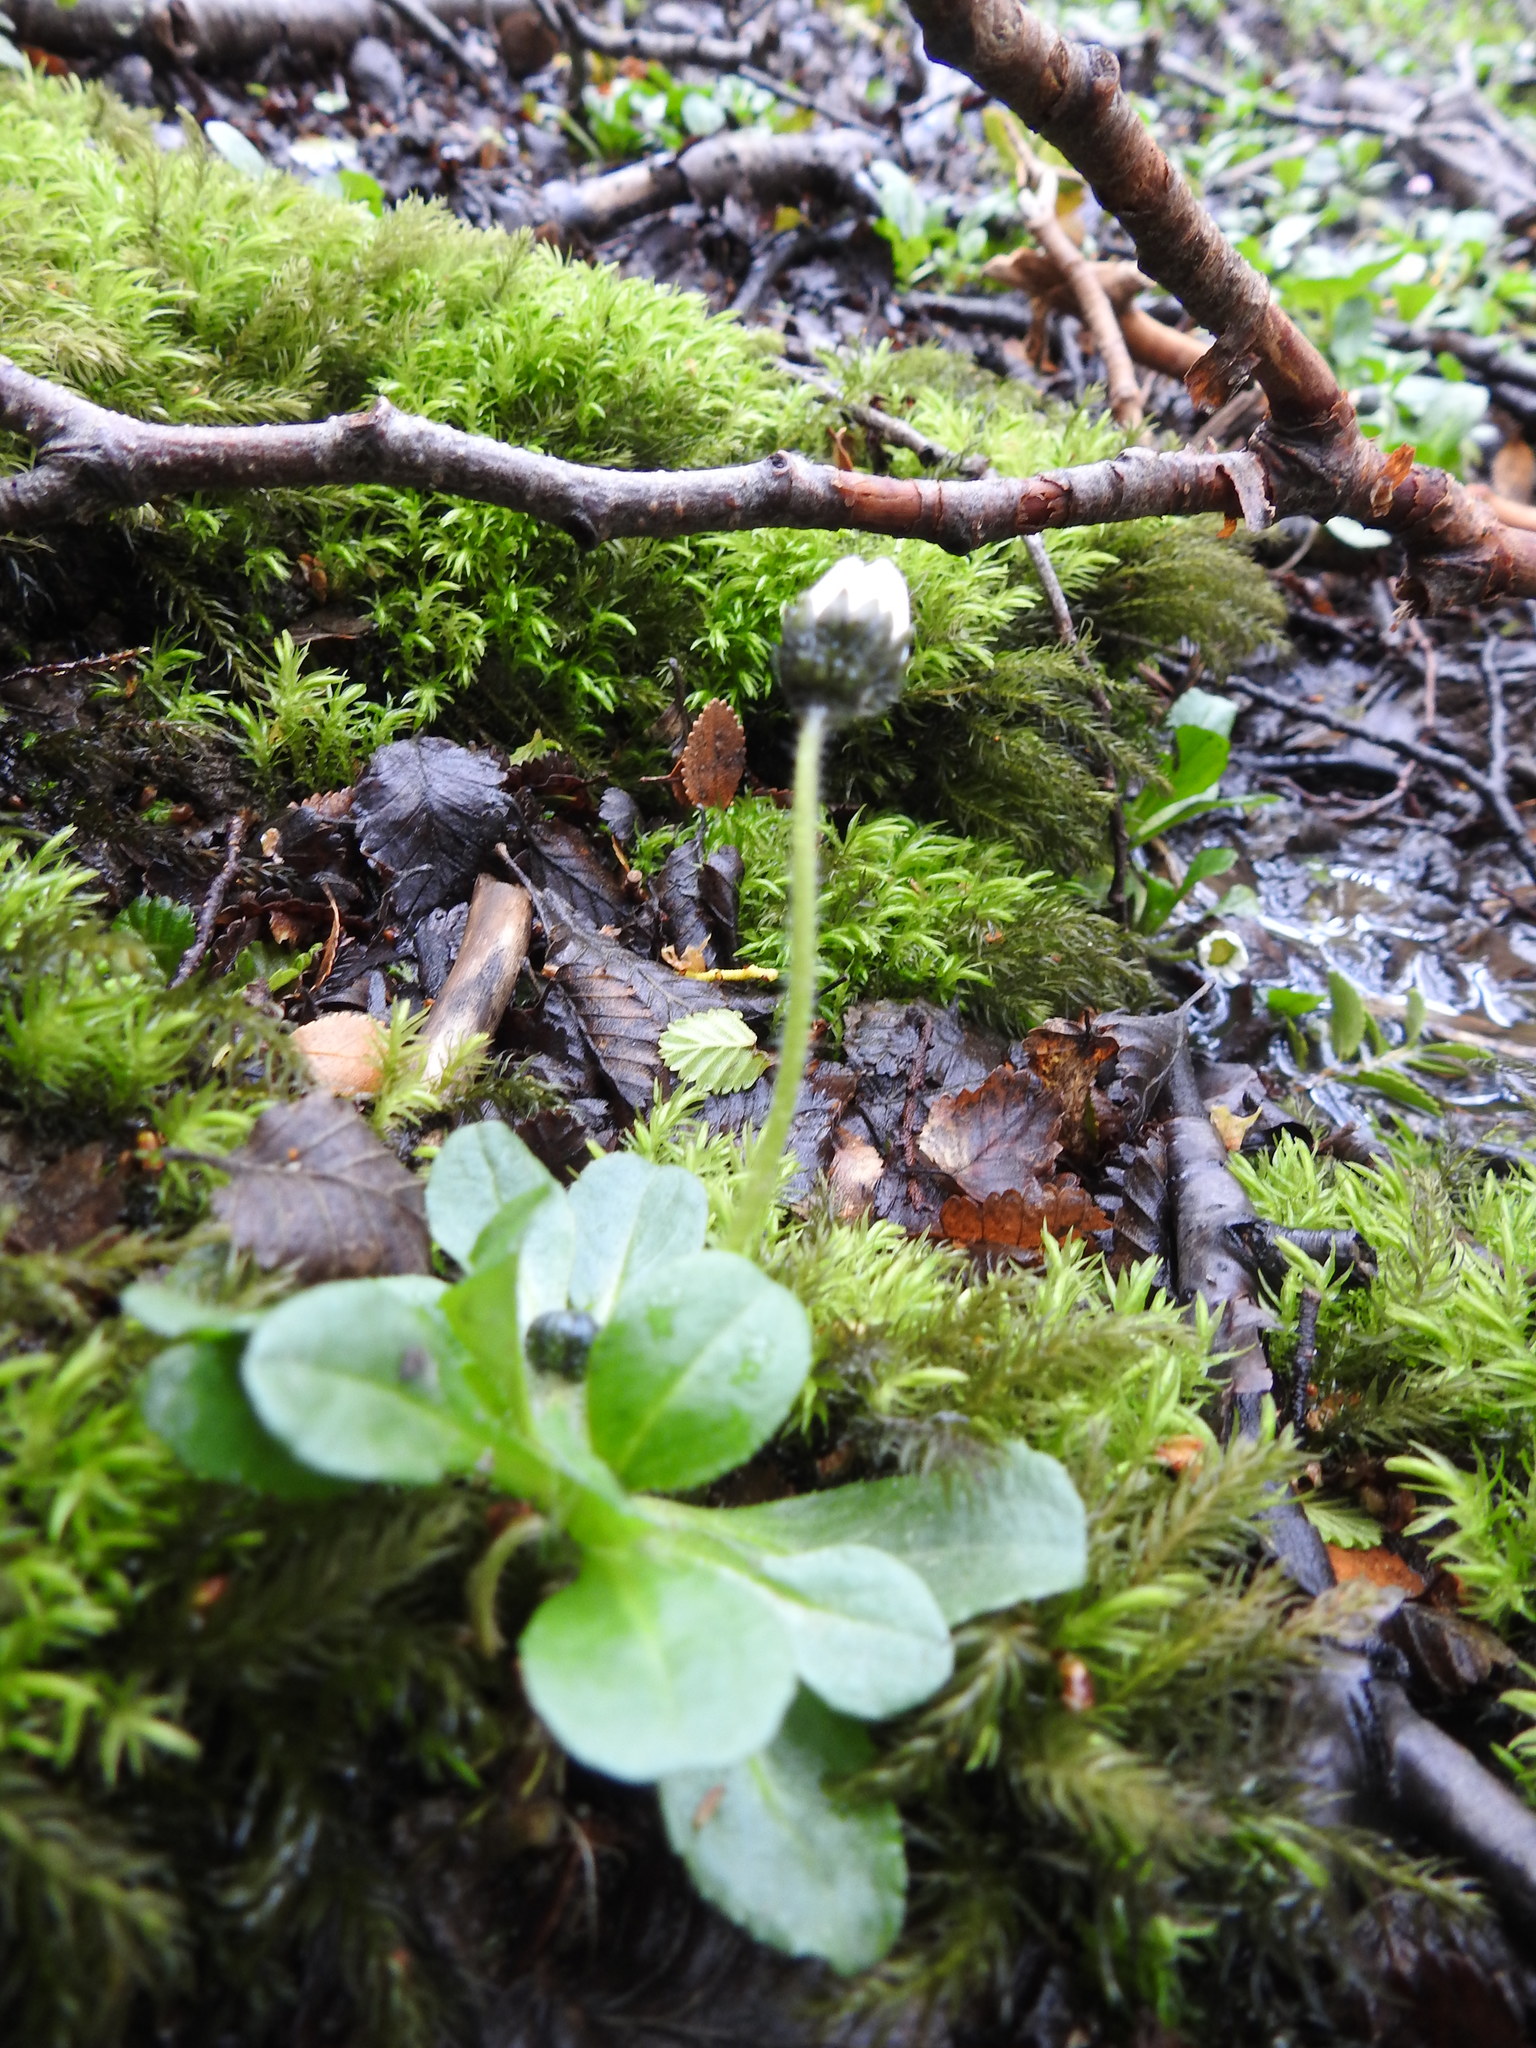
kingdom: Plantae
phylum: Tracheophyta
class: Magnoliopsida
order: Asterales
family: Asteraceae
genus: Bellis
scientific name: Bellis perennis
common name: Lawndaisy
